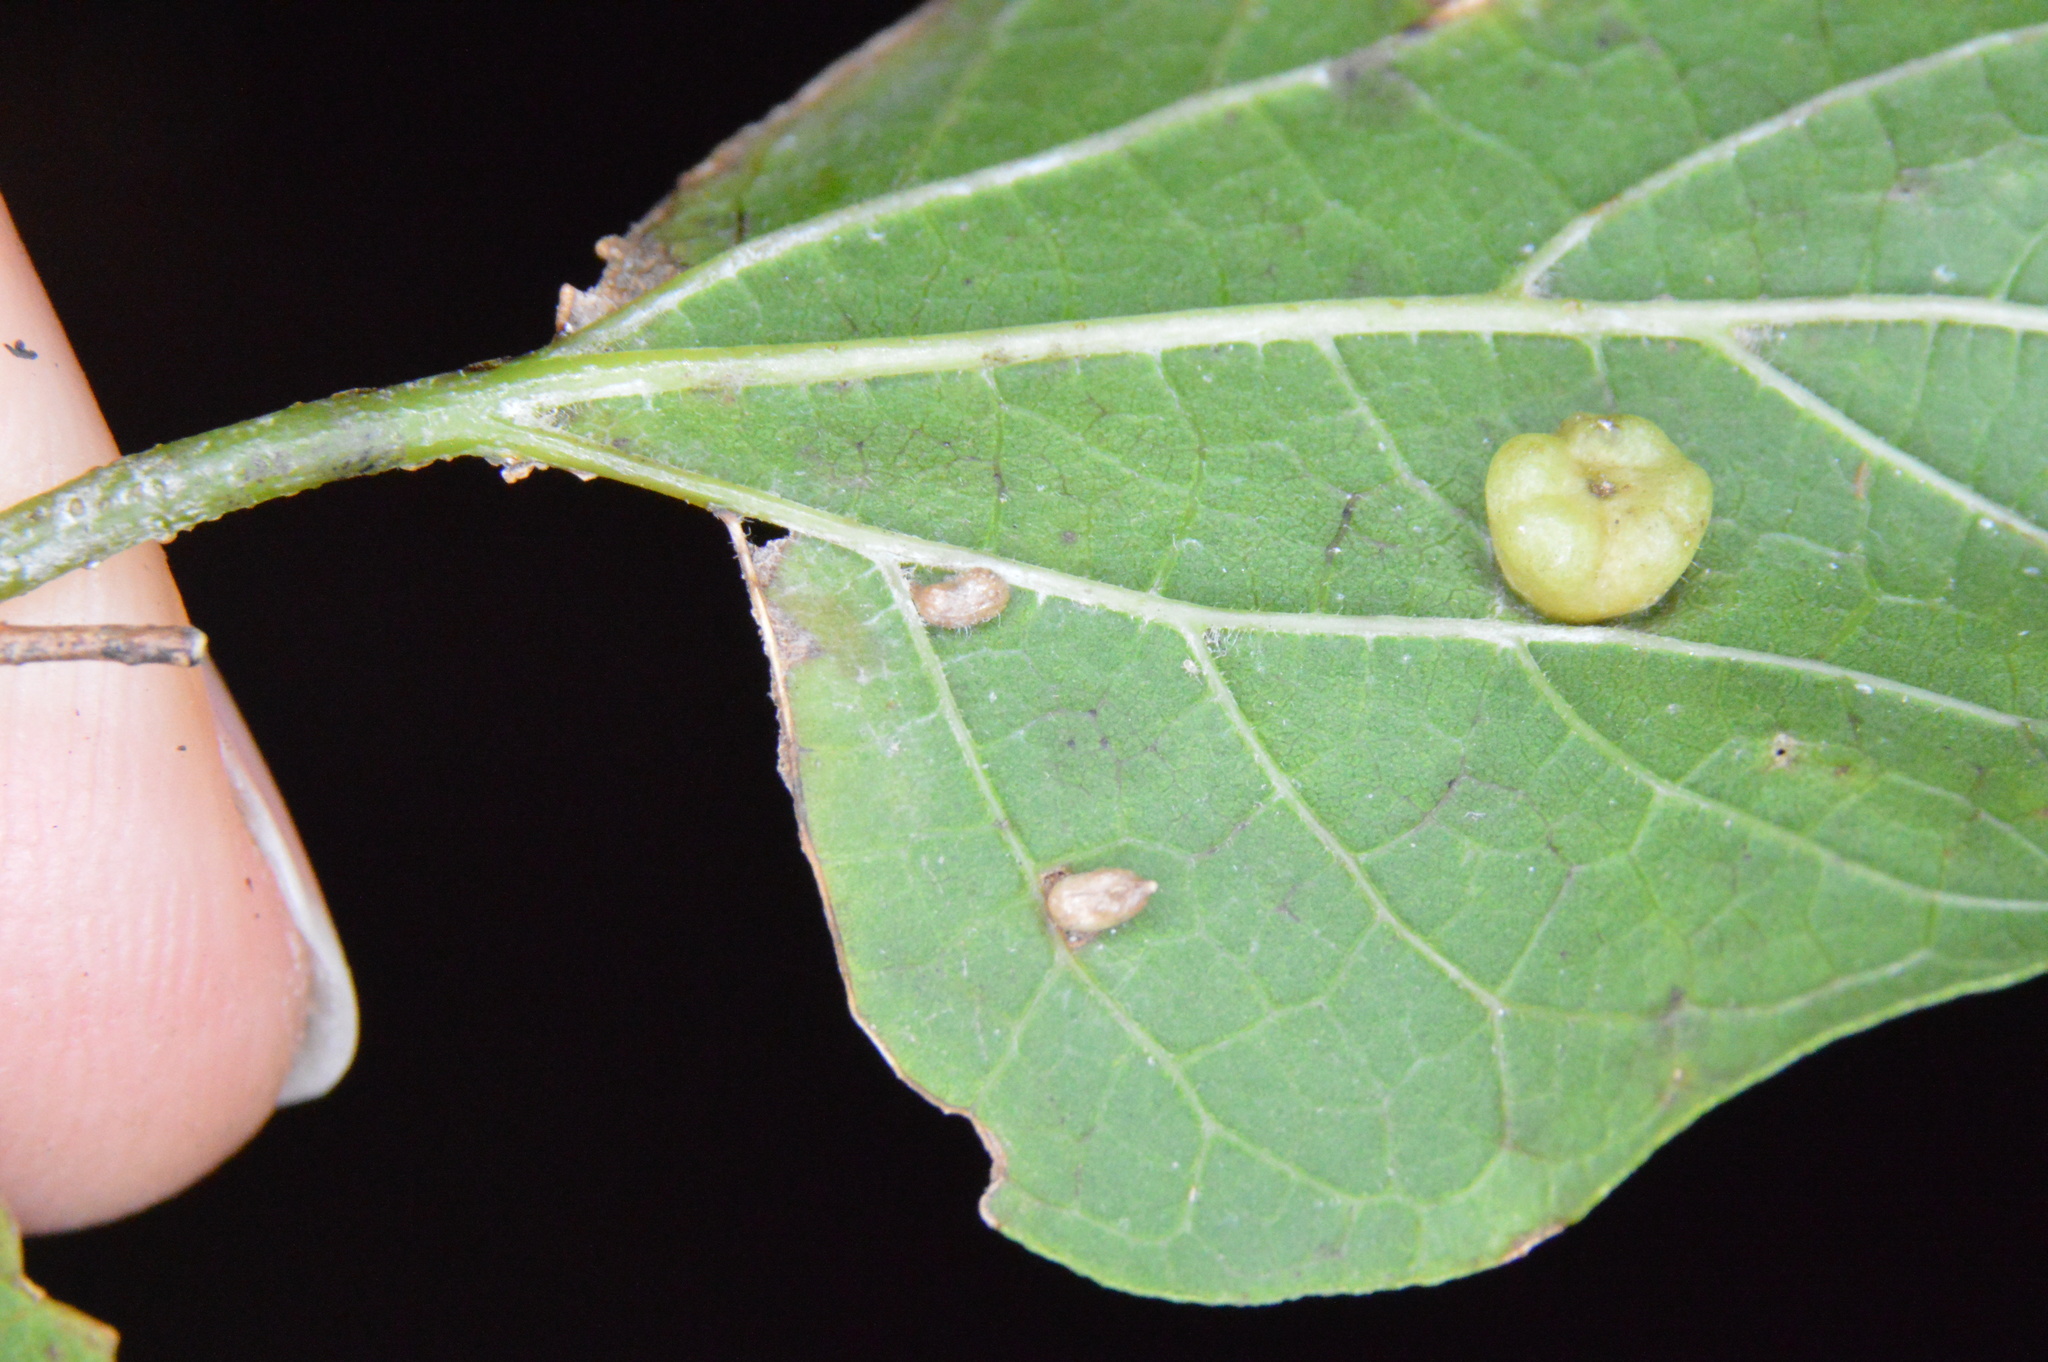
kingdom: Animalia
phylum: Arthropoda
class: Insecta
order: Diptera
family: Cecidomyiidae
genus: Celticecis
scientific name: Celticecis supina
